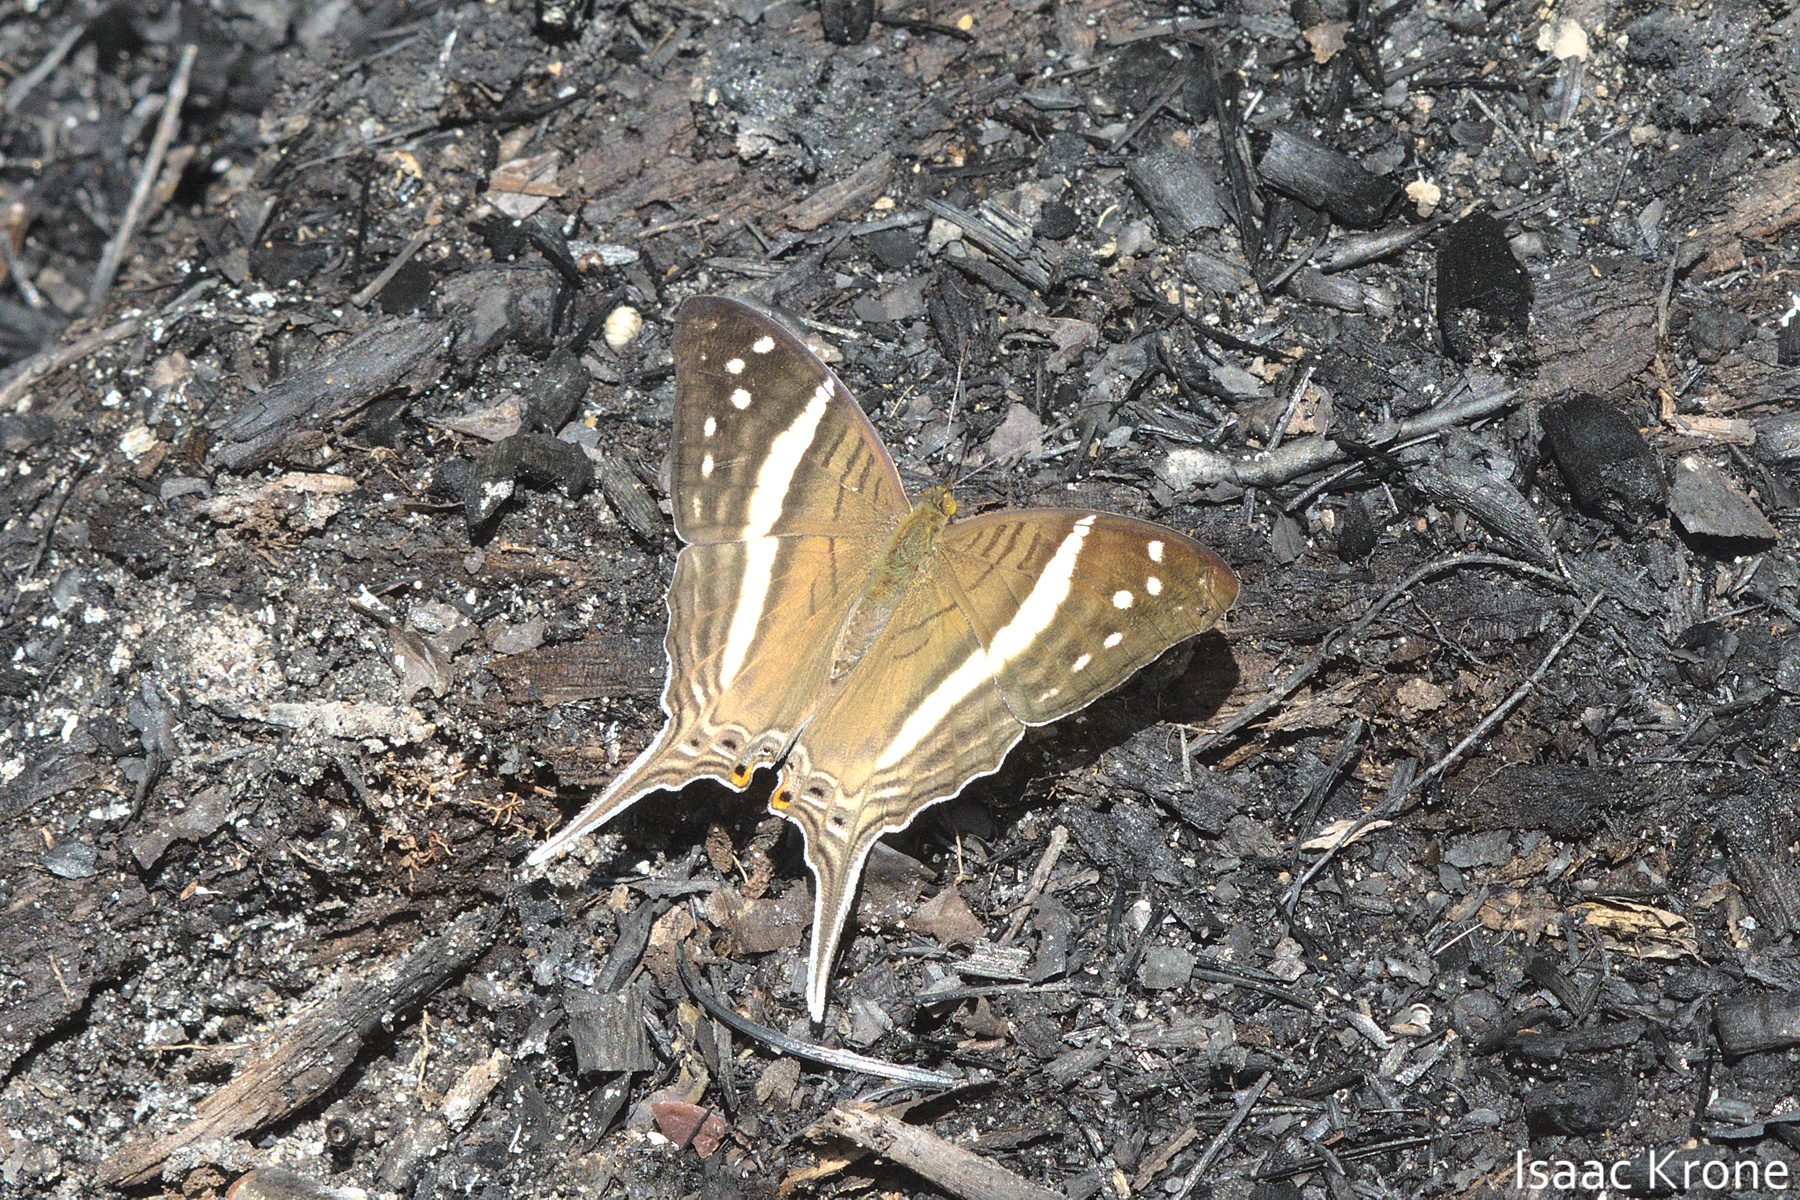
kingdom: Animalia
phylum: Arthropoda
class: Insecta
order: Lepidoptera
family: Nymphalidae
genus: Marpesia
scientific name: Marpesia crethon
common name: Crethon daggerwing
